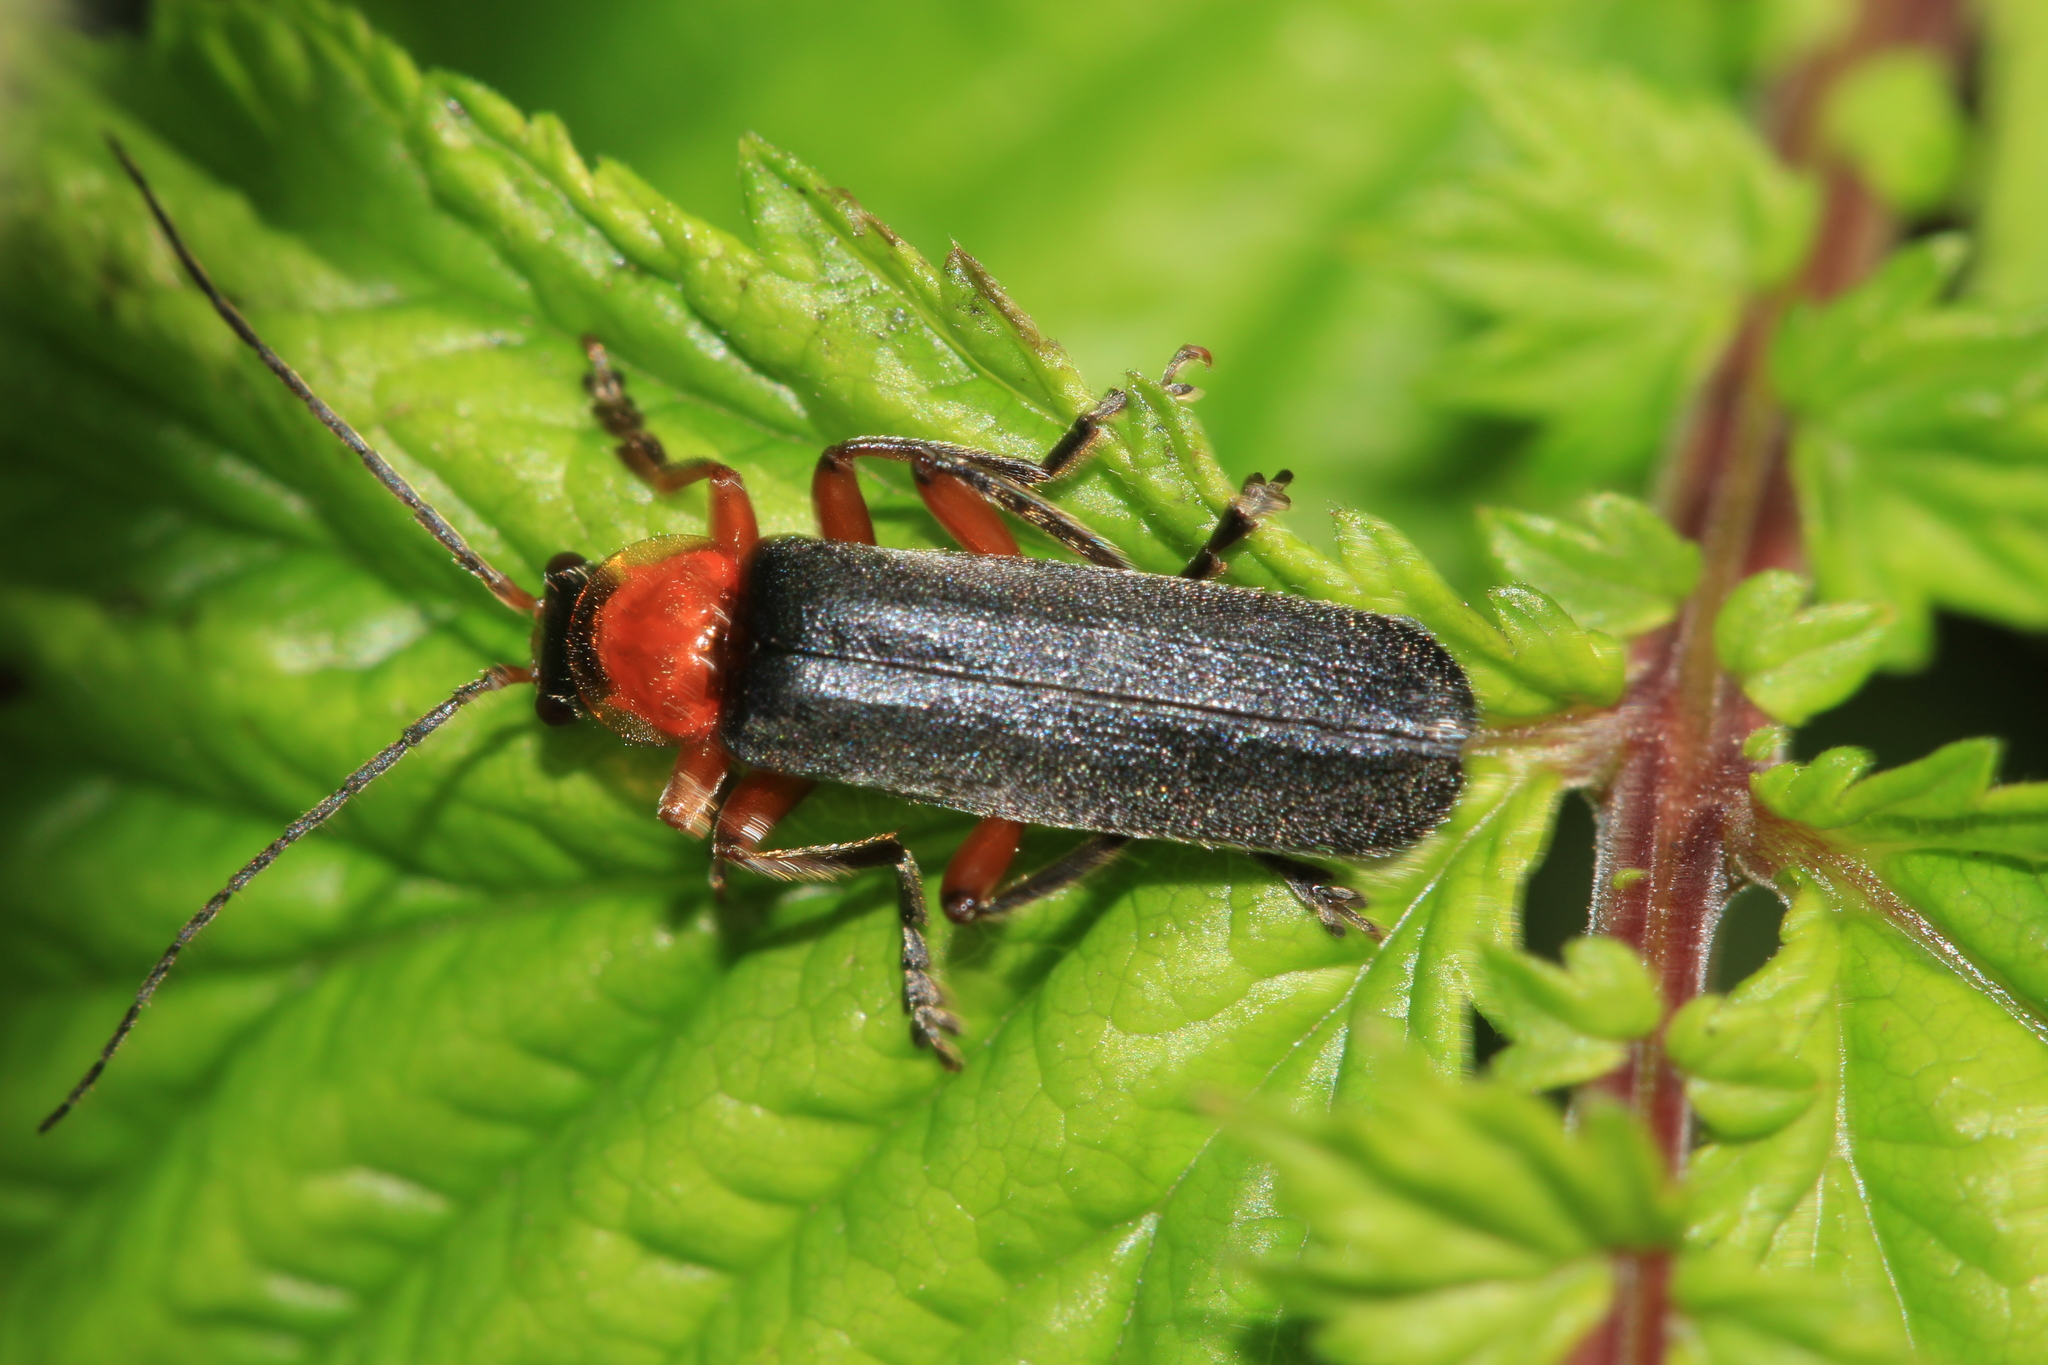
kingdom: Animalia
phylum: Arthropoda
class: Insecta
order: Coleoptera
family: Cantharidae
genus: Cantharis
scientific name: Cantharis pellucida
